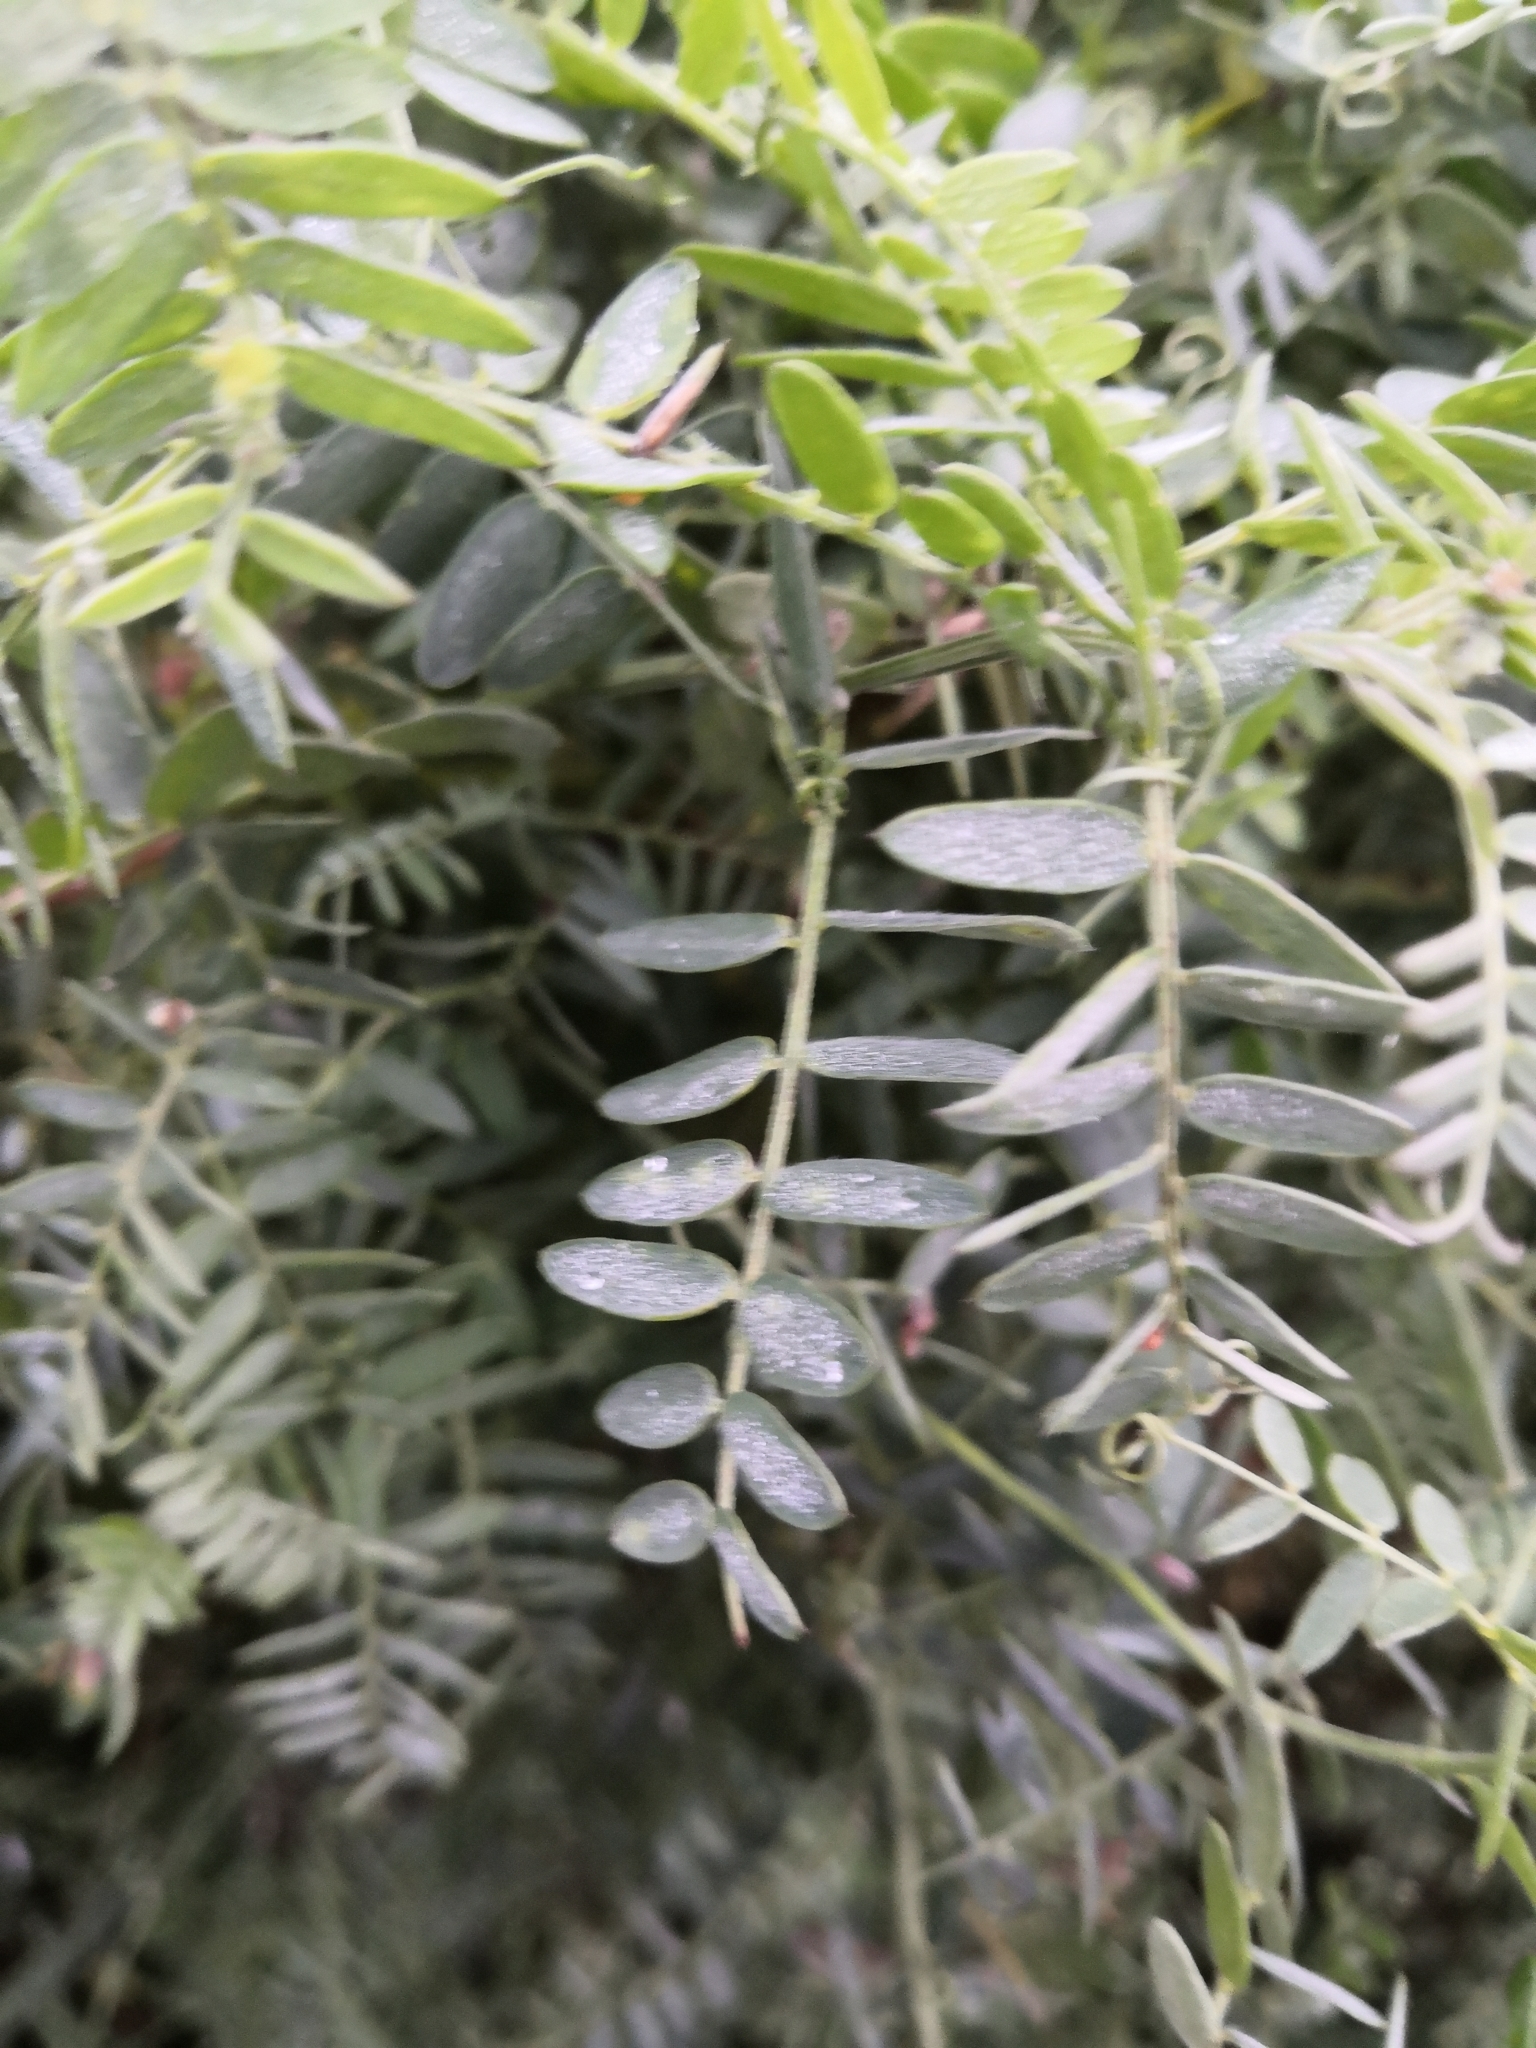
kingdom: Plantae
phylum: Tracheophyta
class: Magnoliopsida
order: Fabales
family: Fabaceae
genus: Vicia
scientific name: Vicia cracca
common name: Bird vetch
